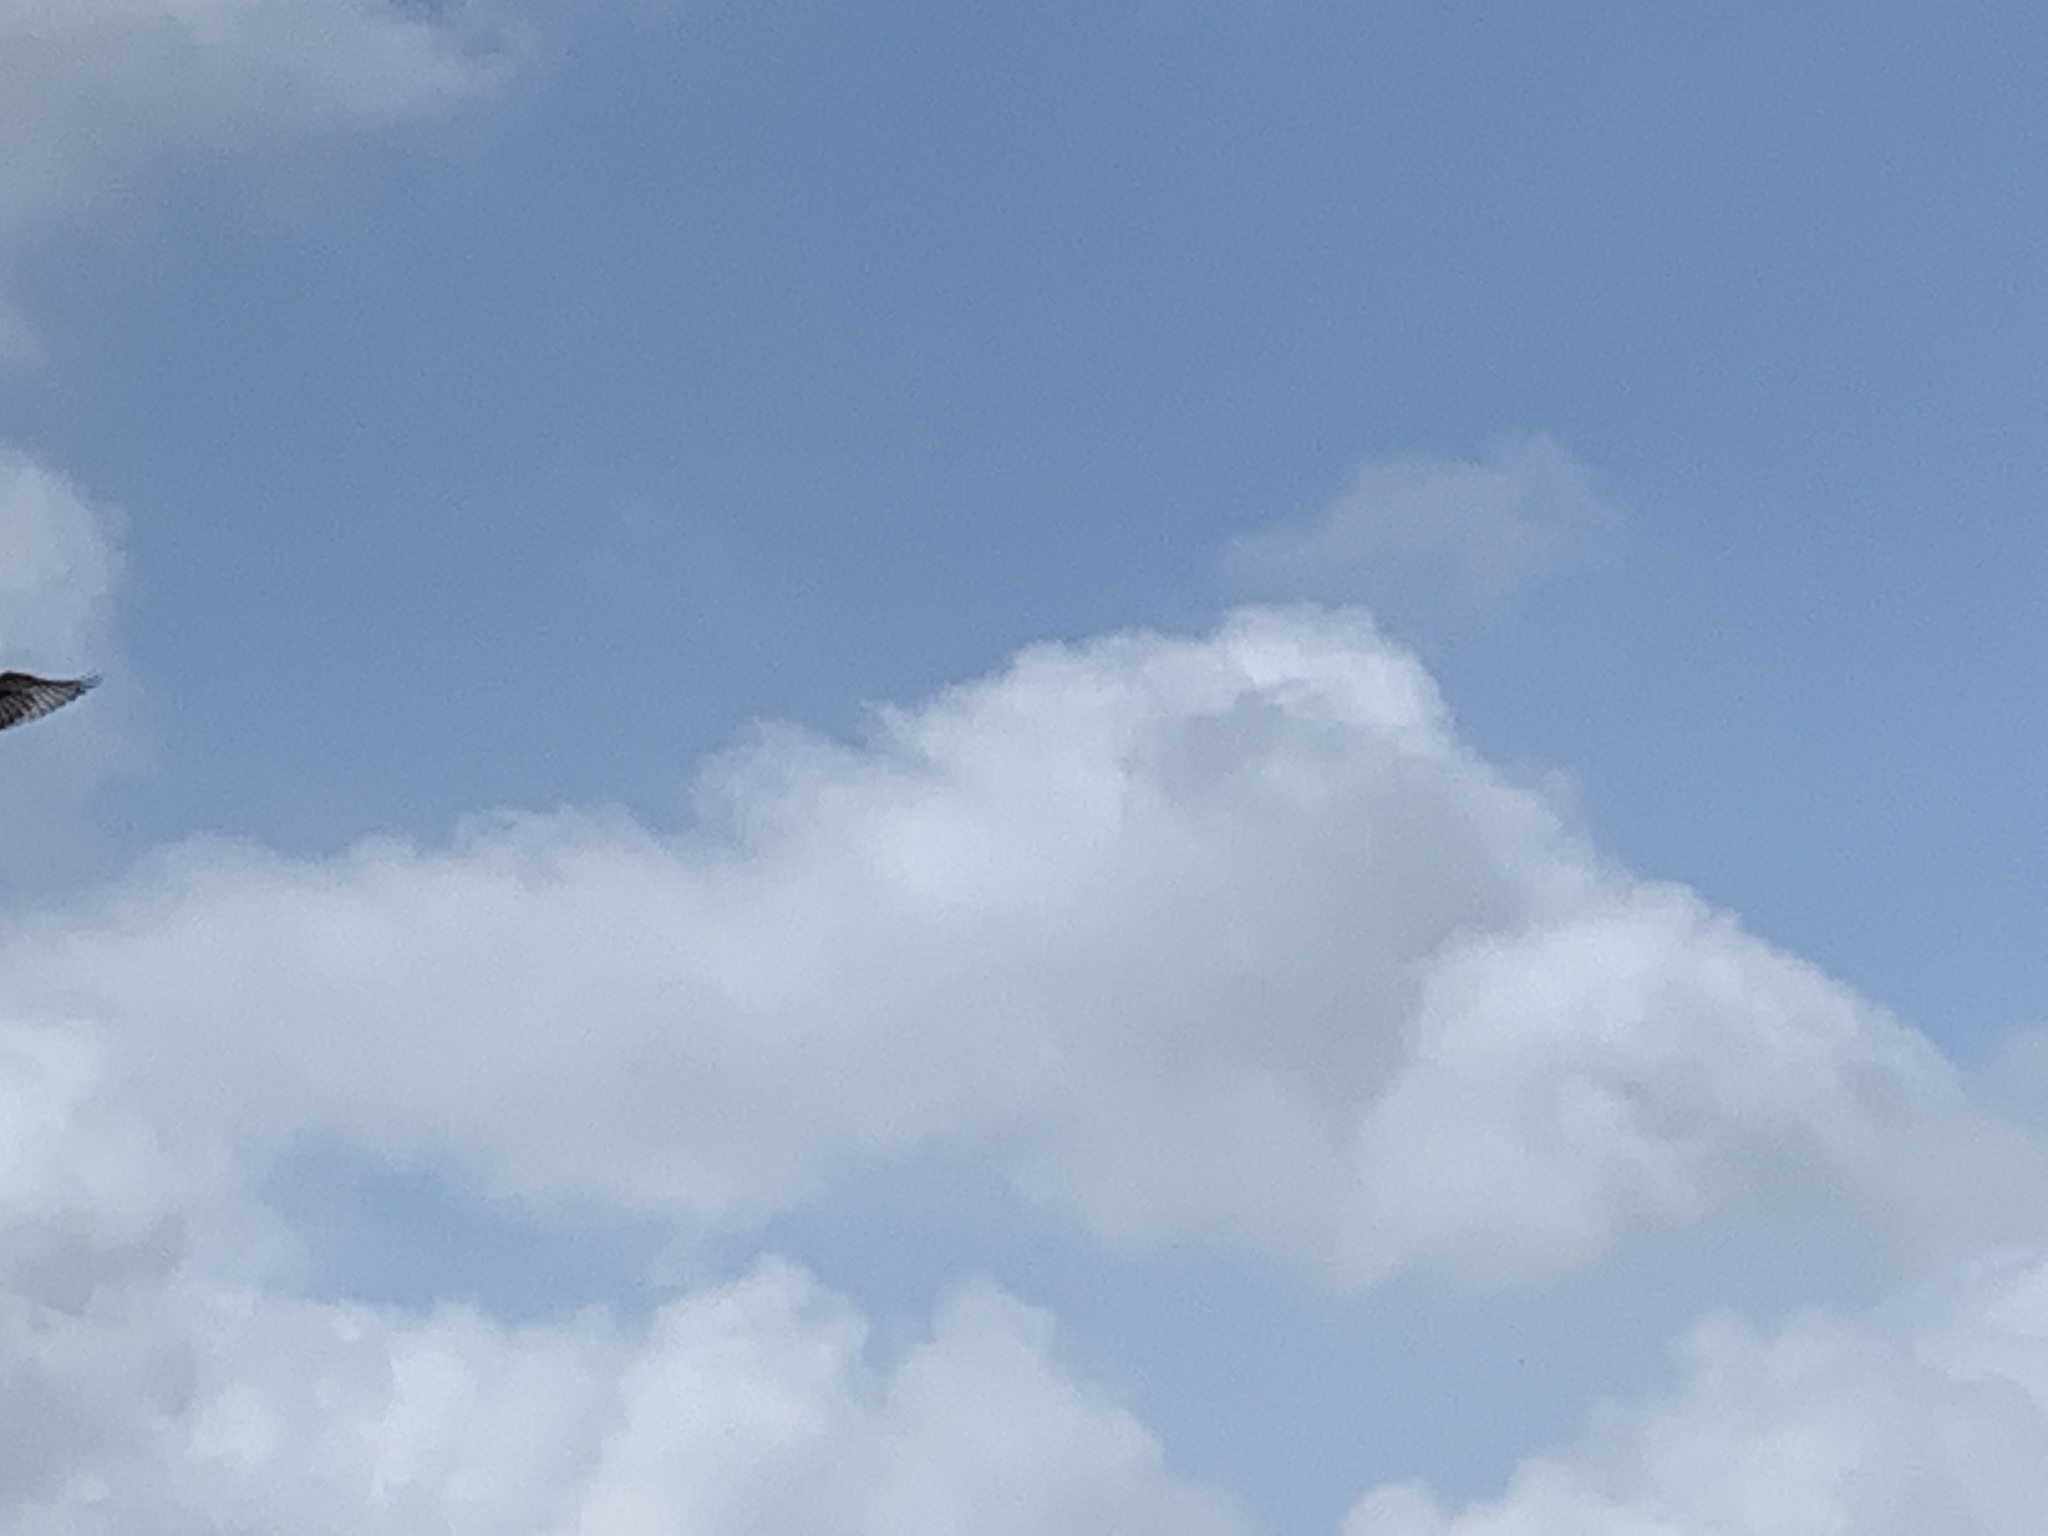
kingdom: Animalia
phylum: Chordata
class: Aves
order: Passeriformes
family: Tyrannidae
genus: Tyrannus
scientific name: Tyrannus forficatus
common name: Scissor-tailed flycatcher
